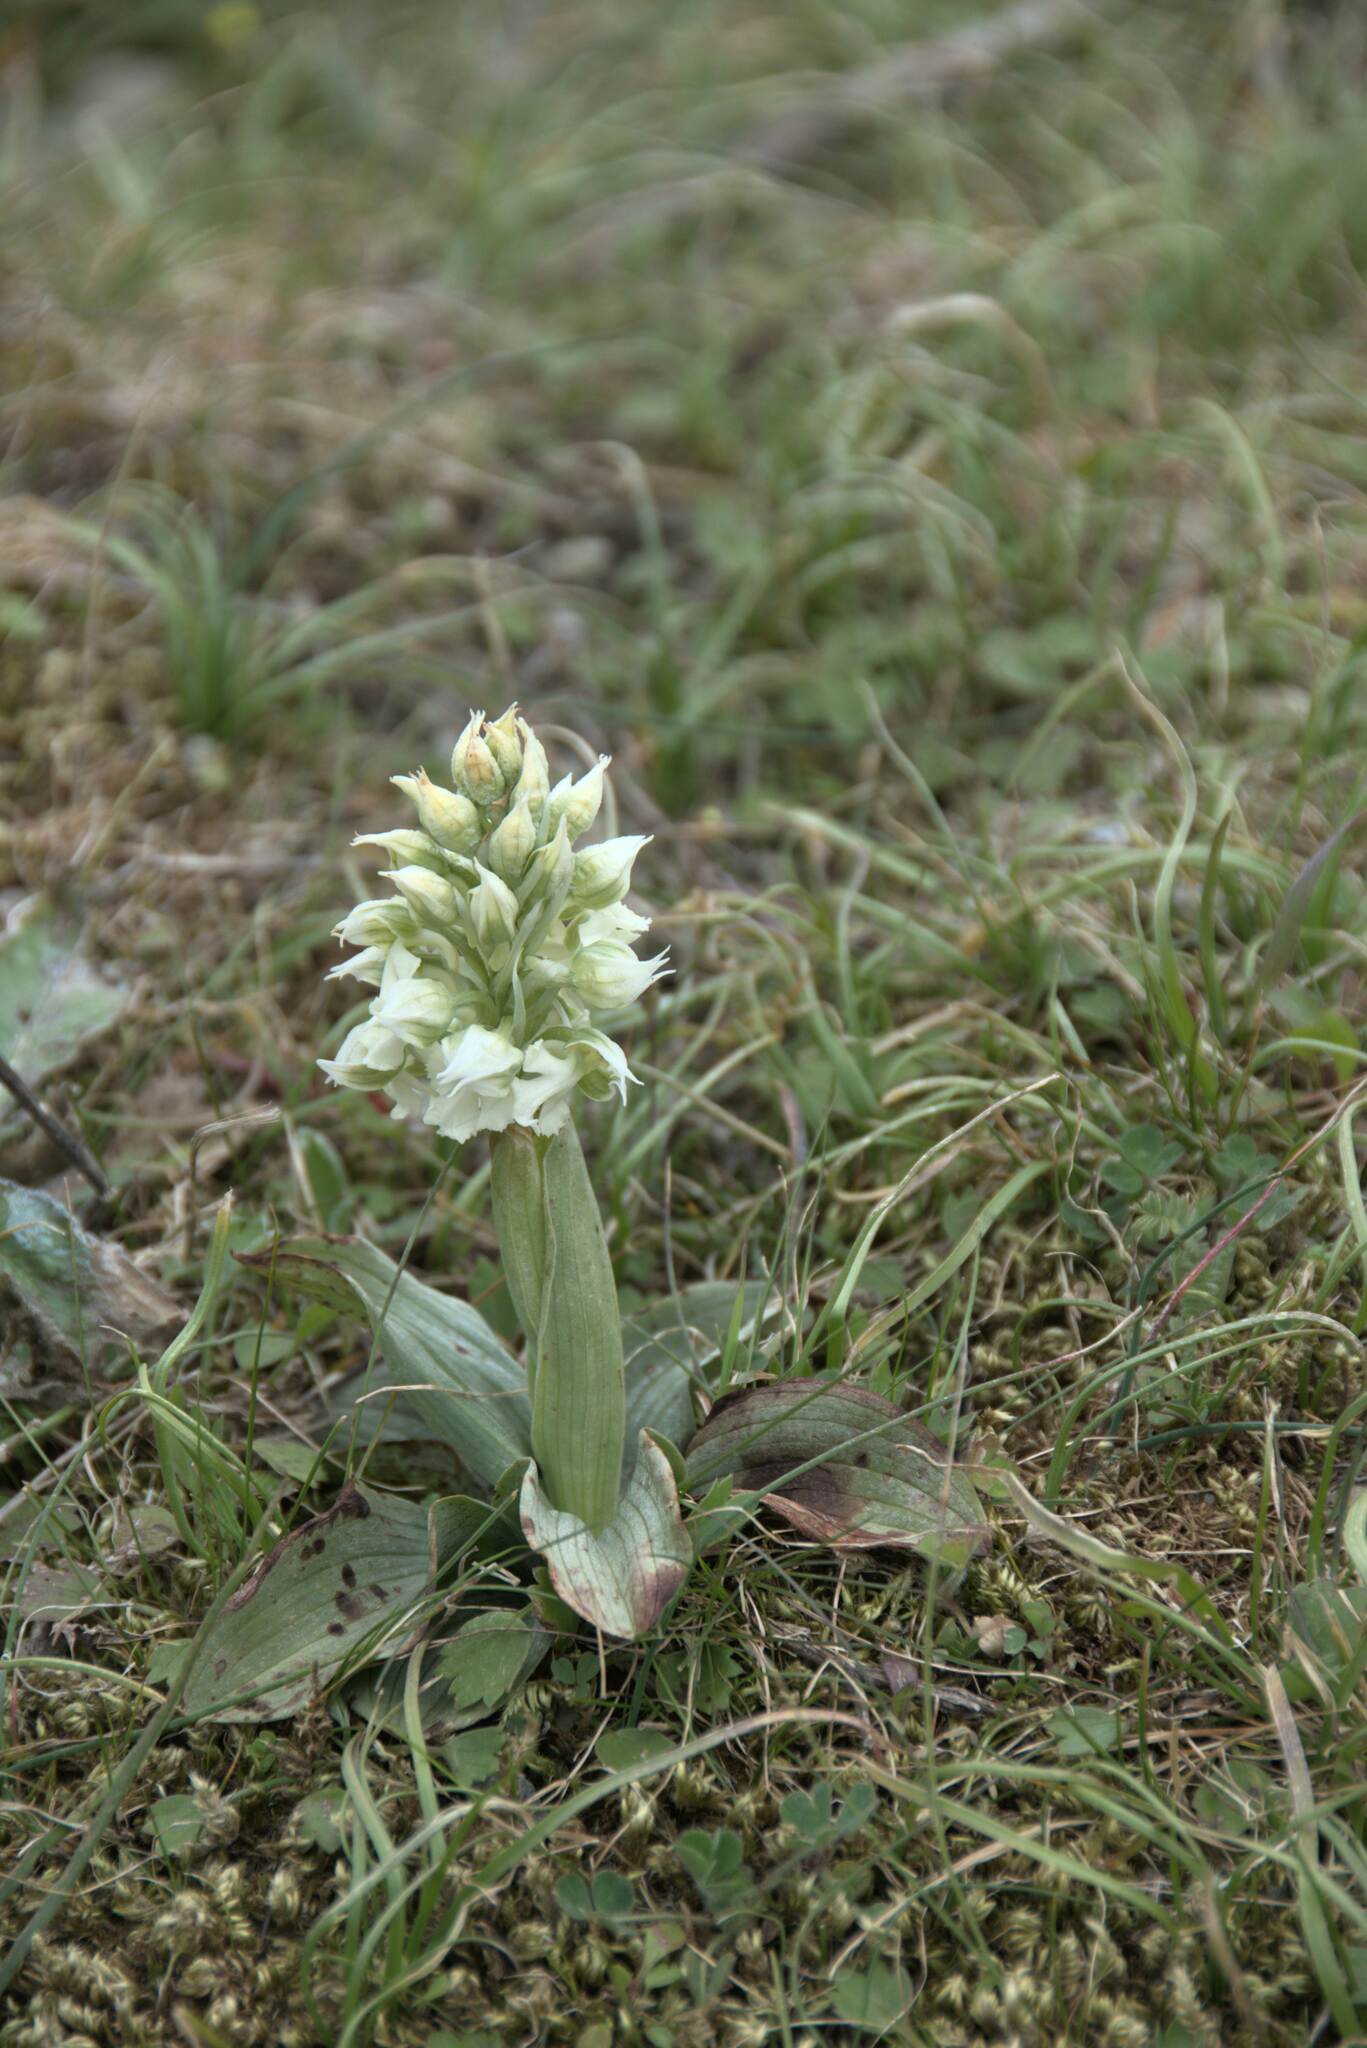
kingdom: Plantae
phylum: Tracheophyta
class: Liliopsida
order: Asparagales
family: Orchidaceae
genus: Neotinea
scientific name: Neotinea lactea
